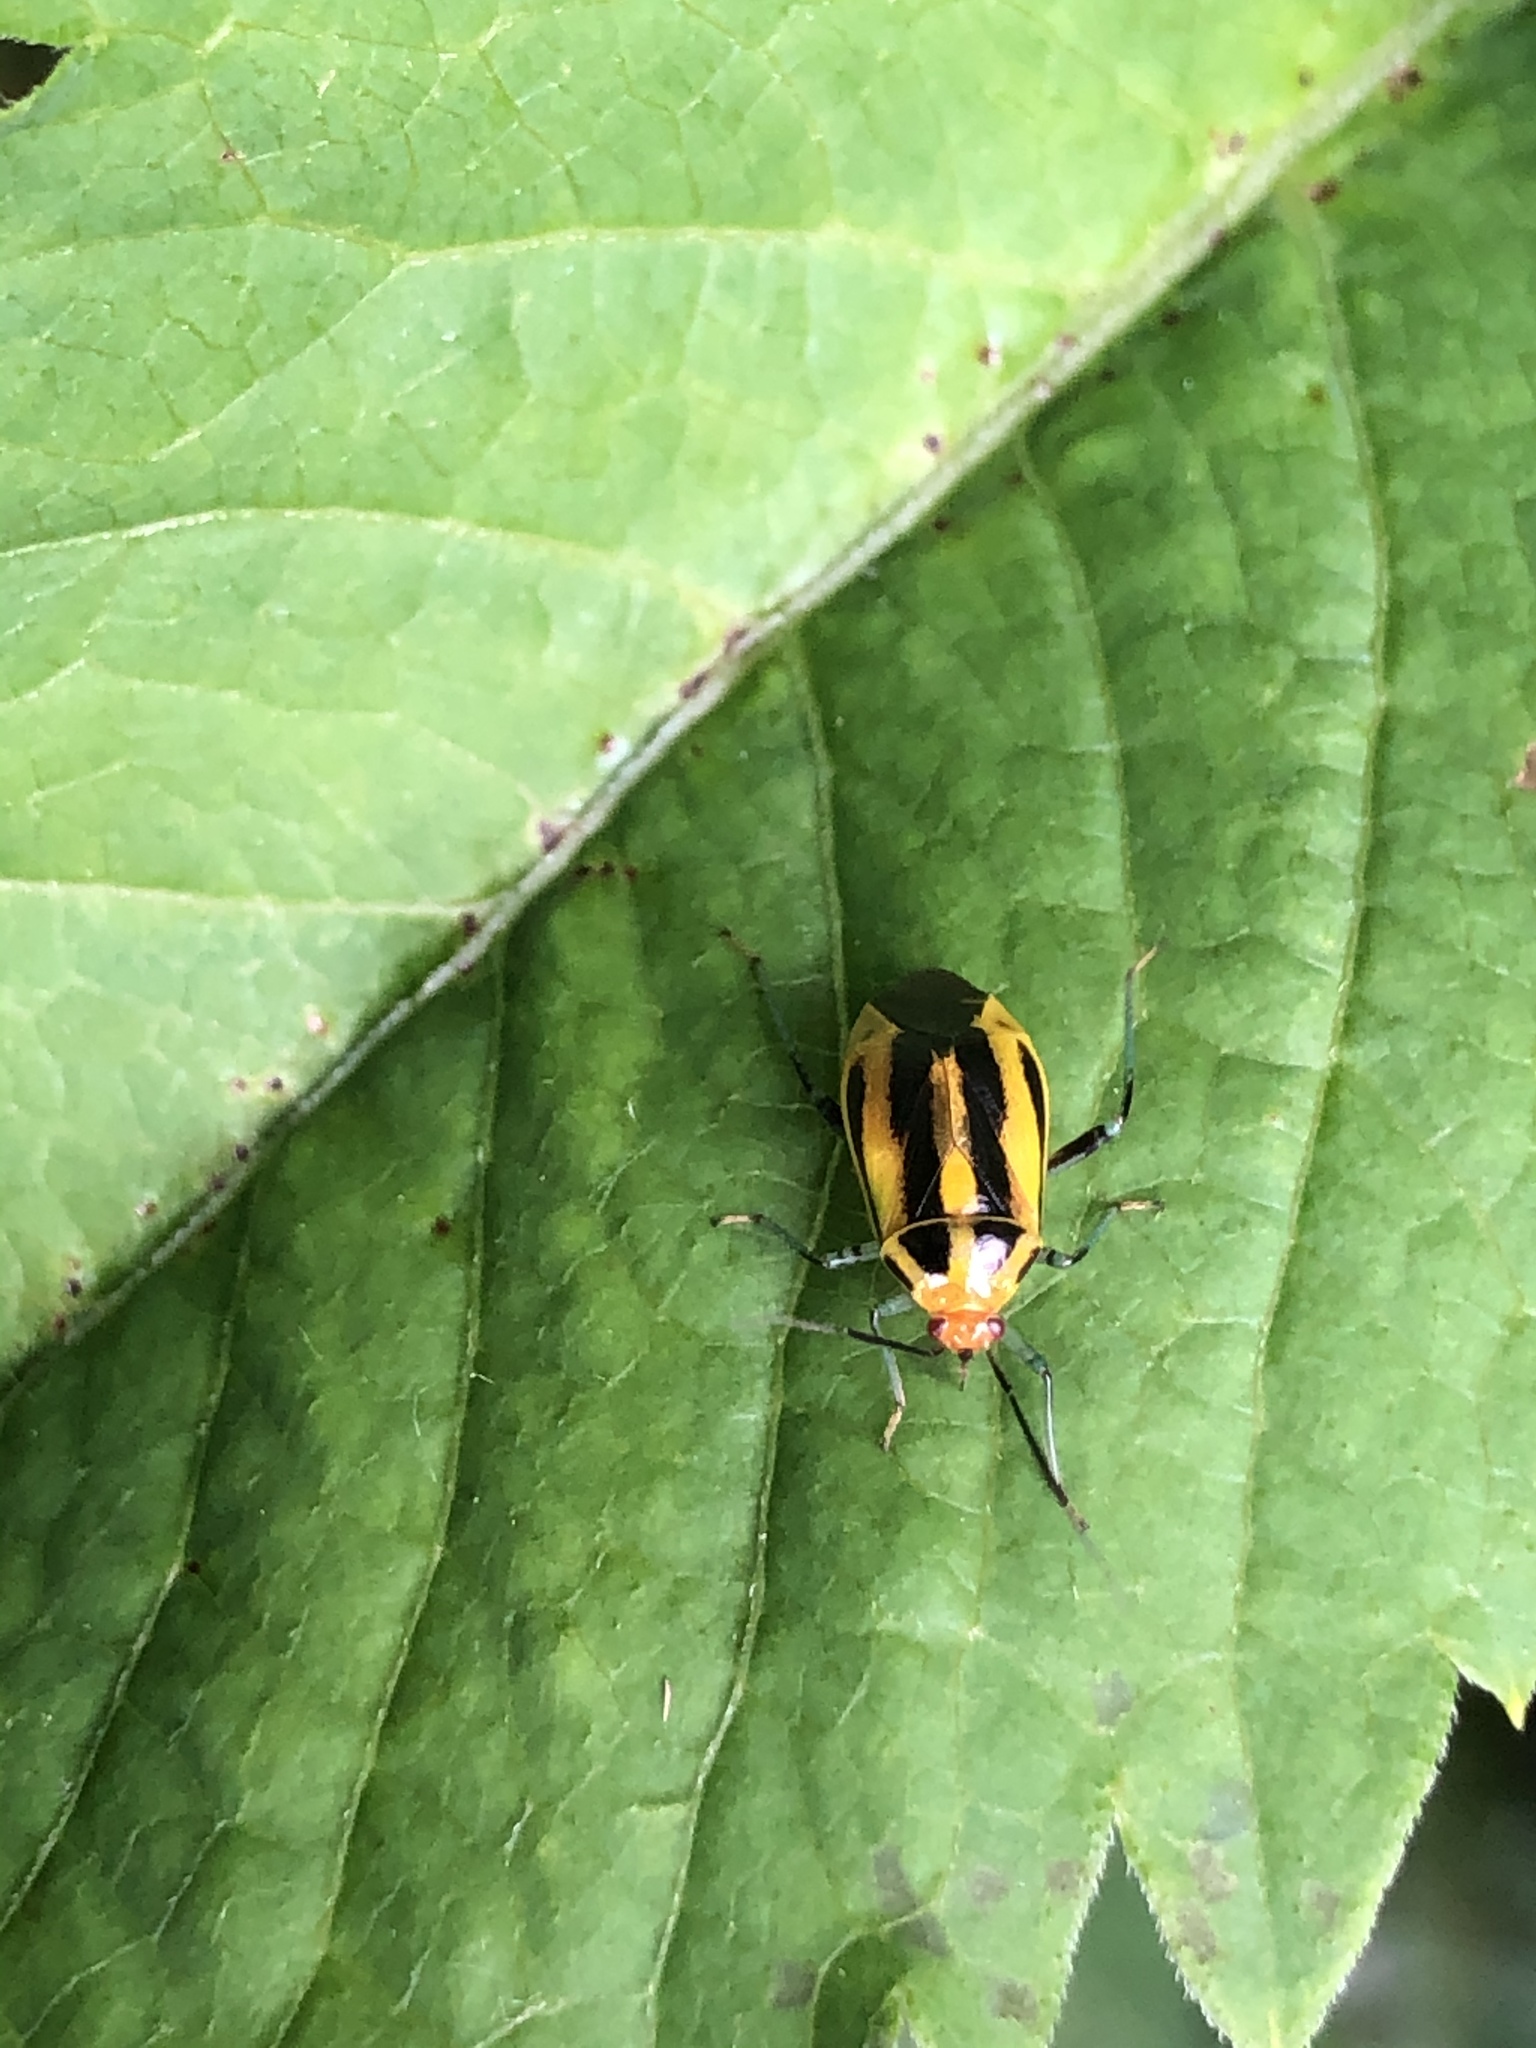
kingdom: Animalia
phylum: Arthropoda
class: Insecta
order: Hemiptera
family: Miridae
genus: Poecilocapsus
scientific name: Poecilocapsus lineatus
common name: Four-lined plant bug
